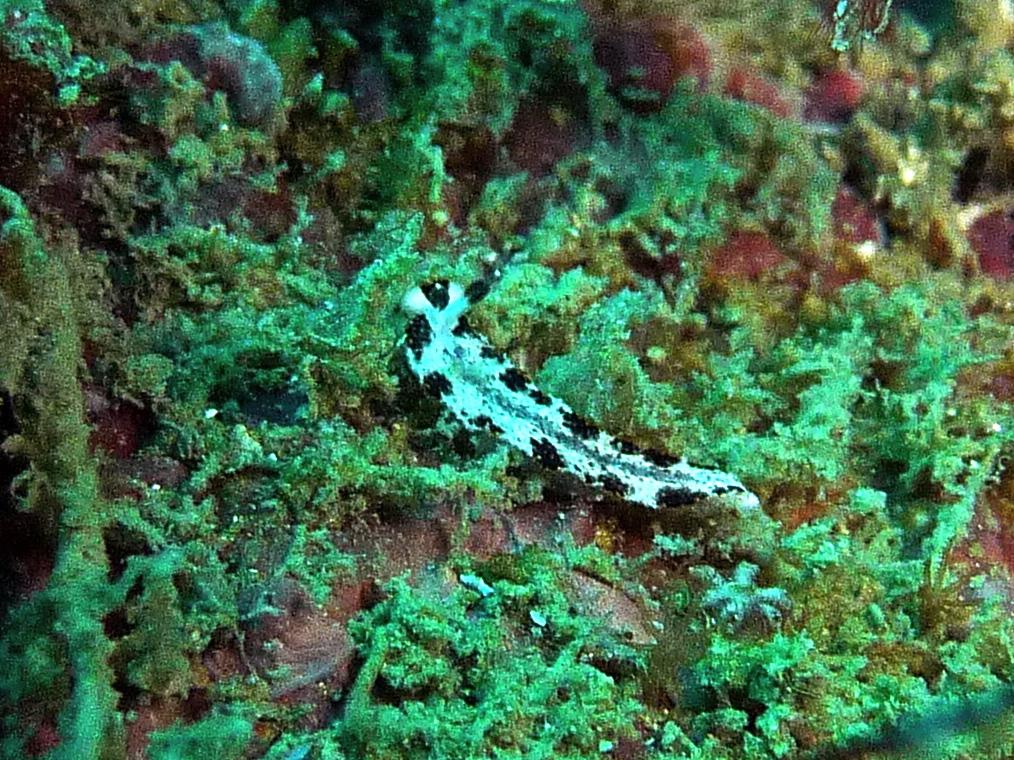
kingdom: Animalia
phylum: Mollusca
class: Gastropoda
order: Nudibranchia
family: Arminidae
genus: Dermatobranchus
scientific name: Dermatobranchus fortunatus
